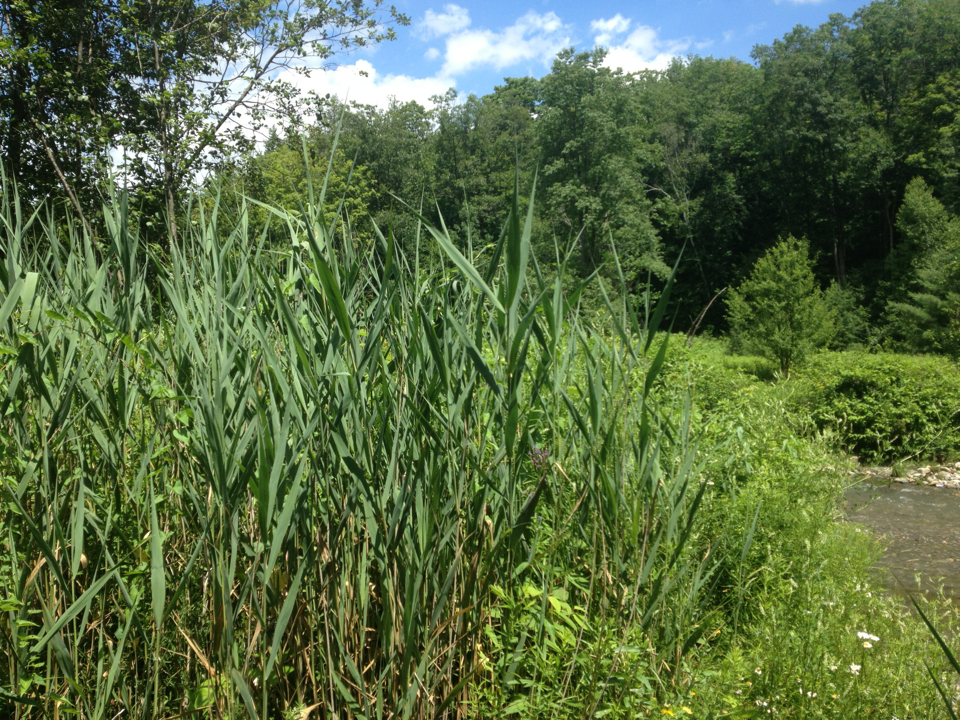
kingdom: Plantae
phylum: Tracheophyta
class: Liliopsida
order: Poales
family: Poaceae
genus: Phragmites
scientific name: Phragmites australis
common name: Common reed
